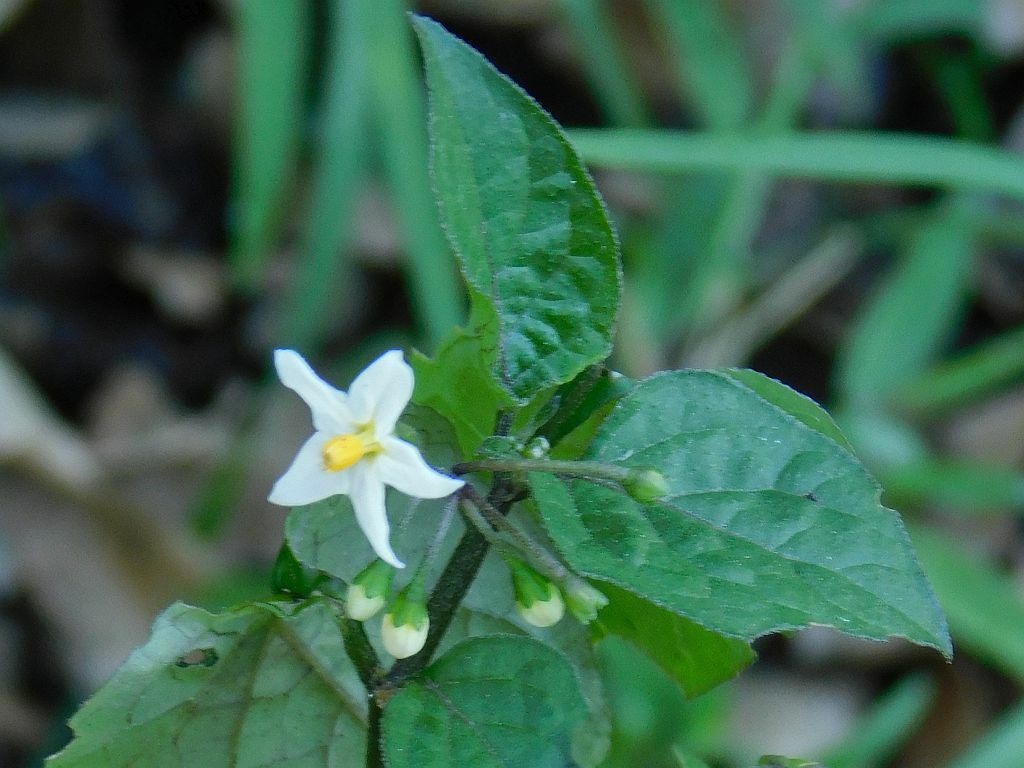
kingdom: Plantae
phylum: Tracheophyta
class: Magnoliopsida
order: Solanales
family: Solanaceae
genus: Solanum
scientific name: Solanum nigrum
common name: Black nightshade
